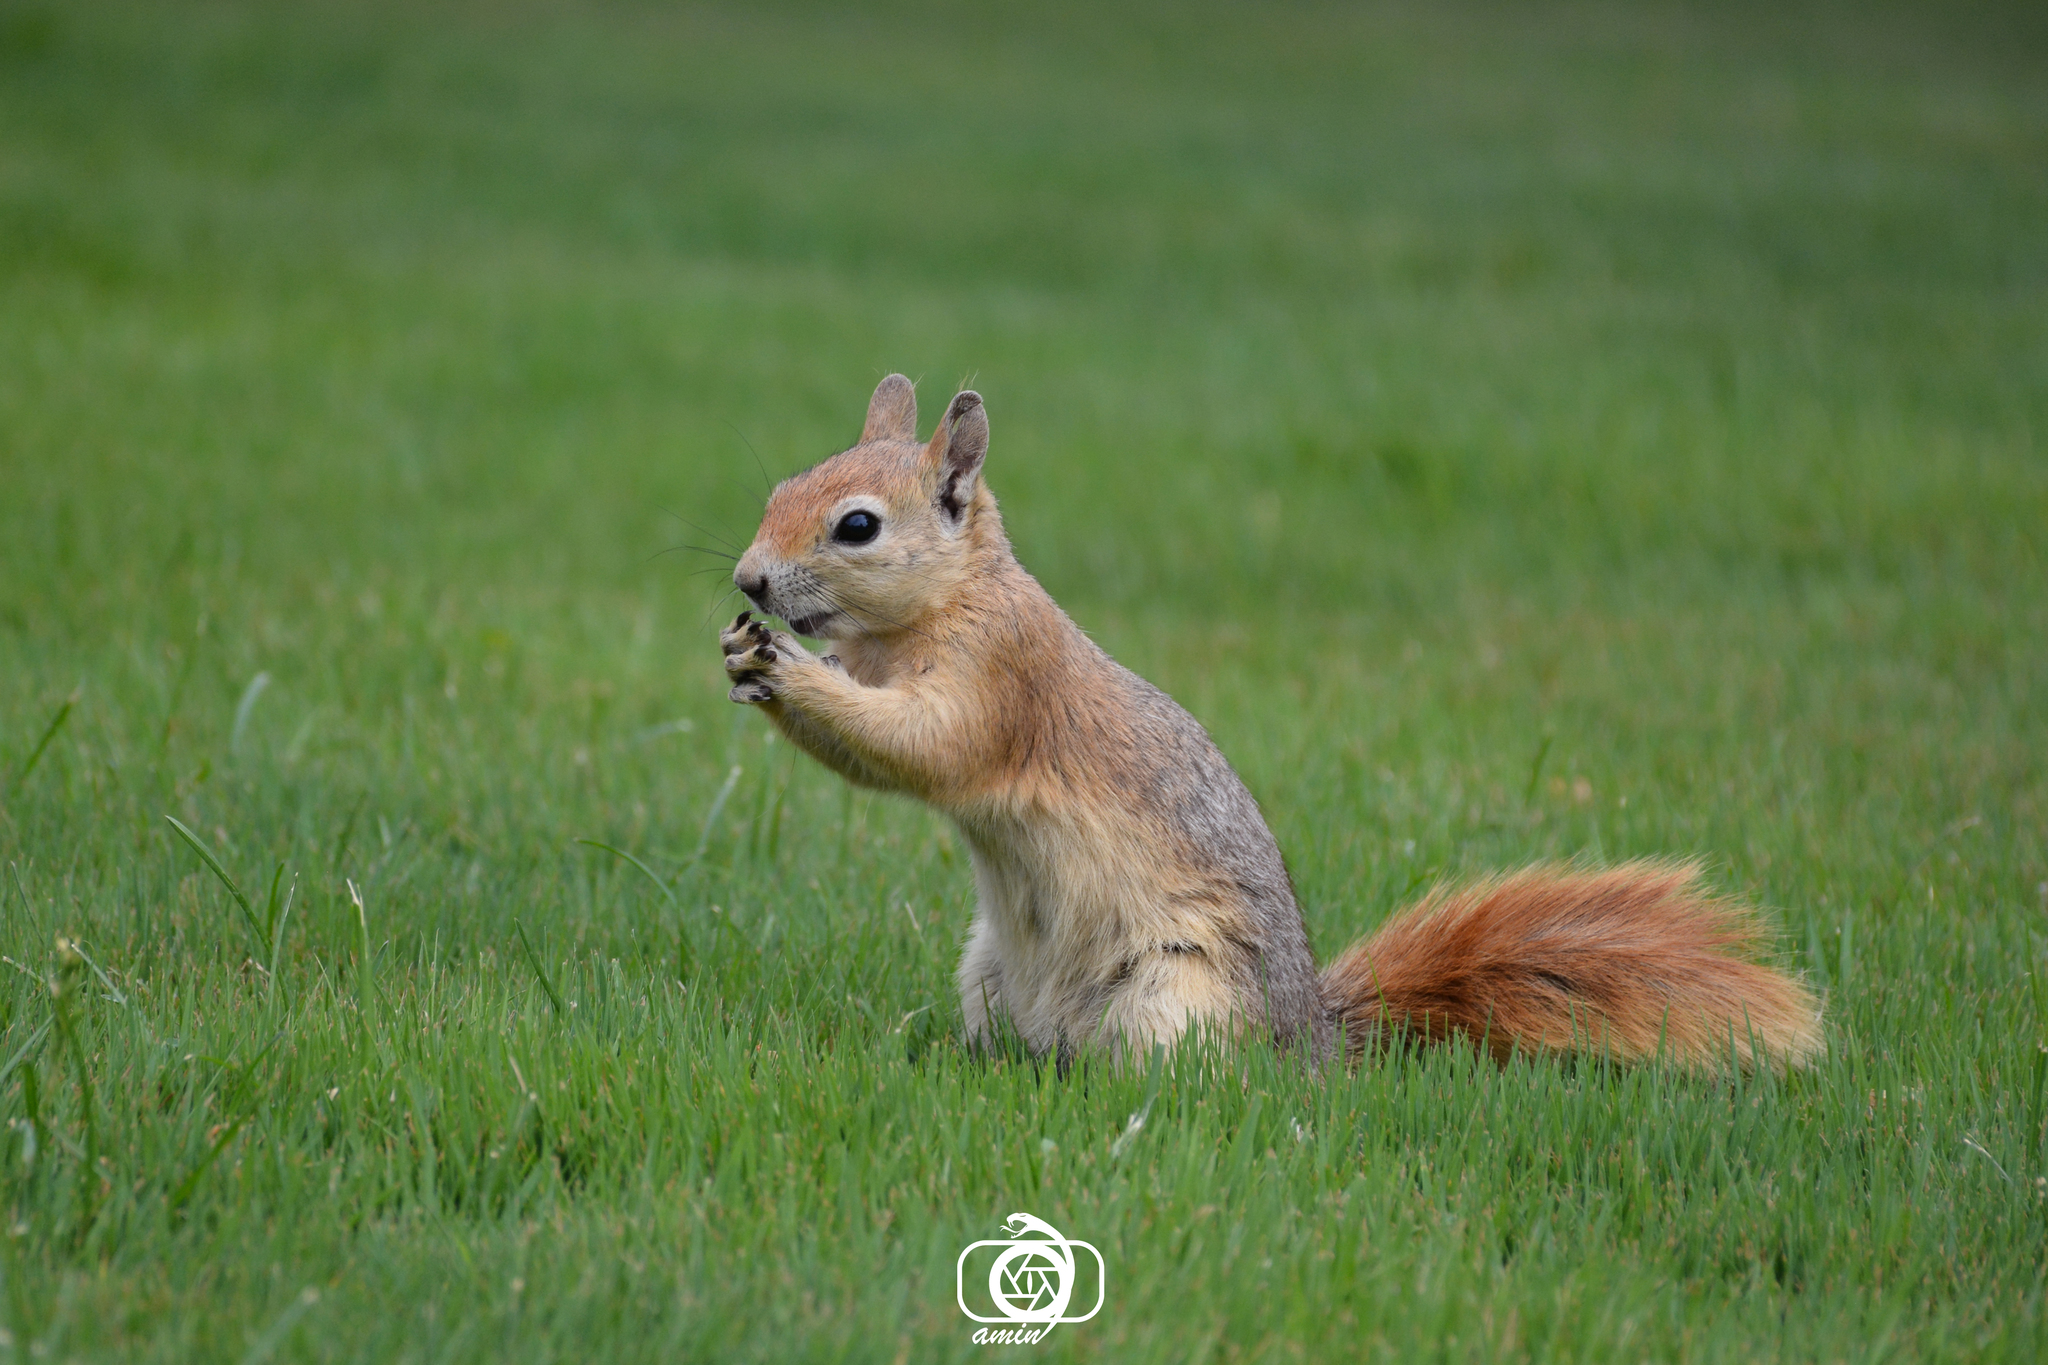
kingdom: Animalia
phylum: Chordata
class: Mammalia
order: Rodentia
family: Sciuridae
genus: Sciurus
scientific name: Sciurus anomalus
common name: Caucasian squirrel
